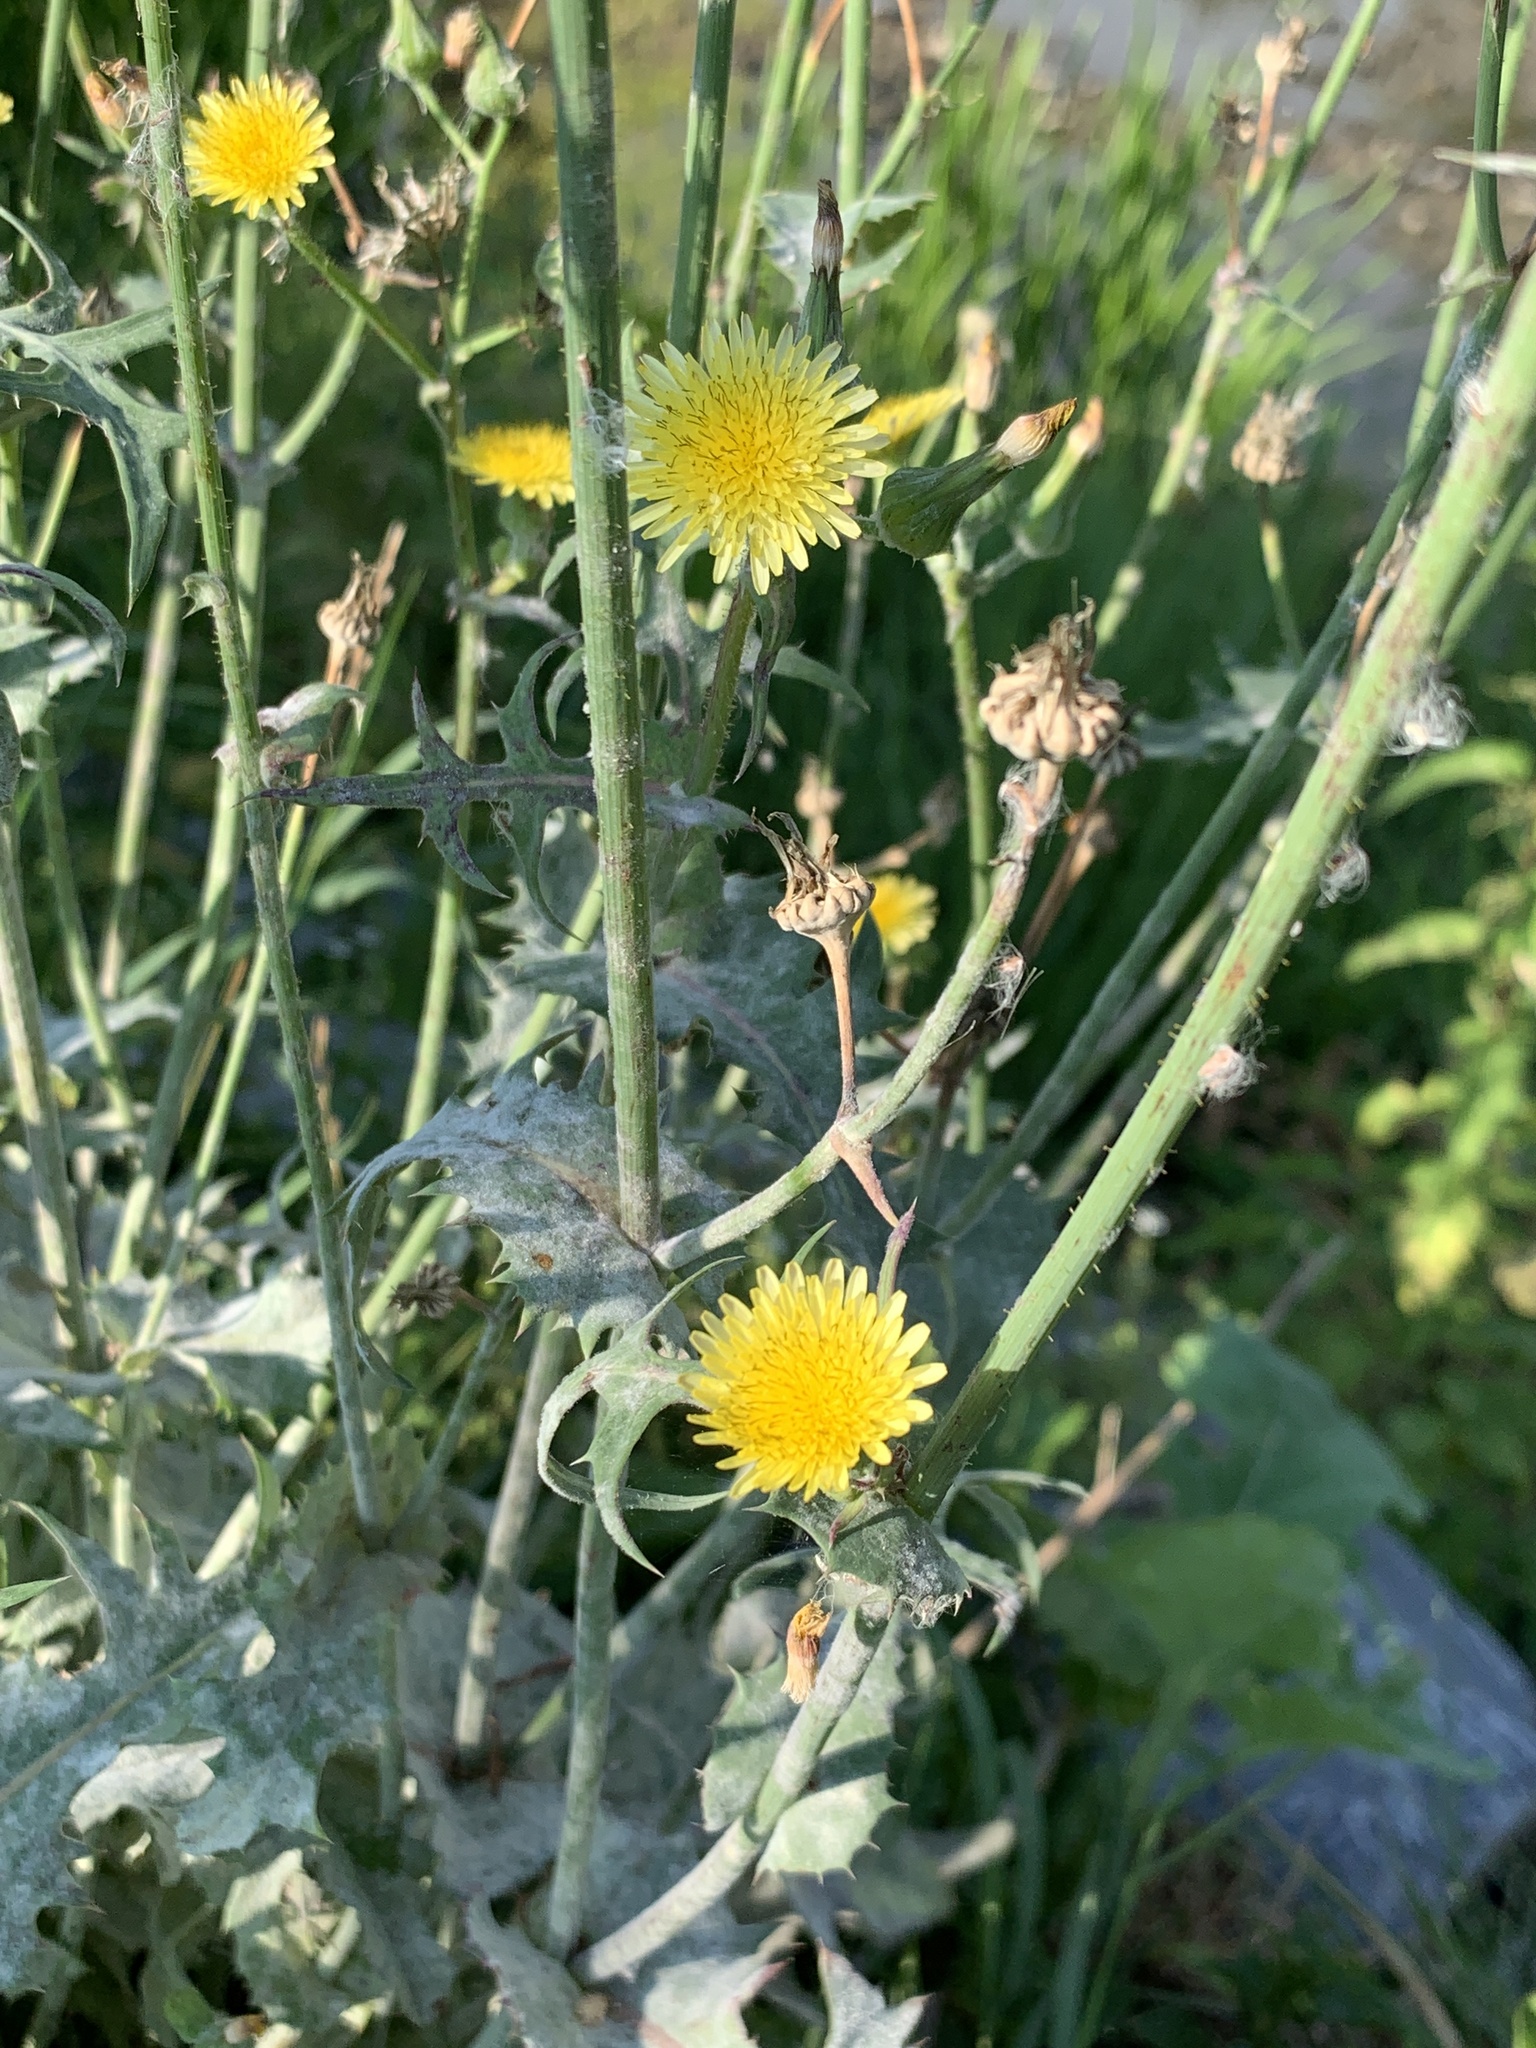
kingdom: Plantae
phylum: Tracheophyta
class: Magnoliopsida
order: Asterales
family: Asteraceae
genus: Sonchus
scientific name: Sonchus oleraceus
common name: Common sowthistle
